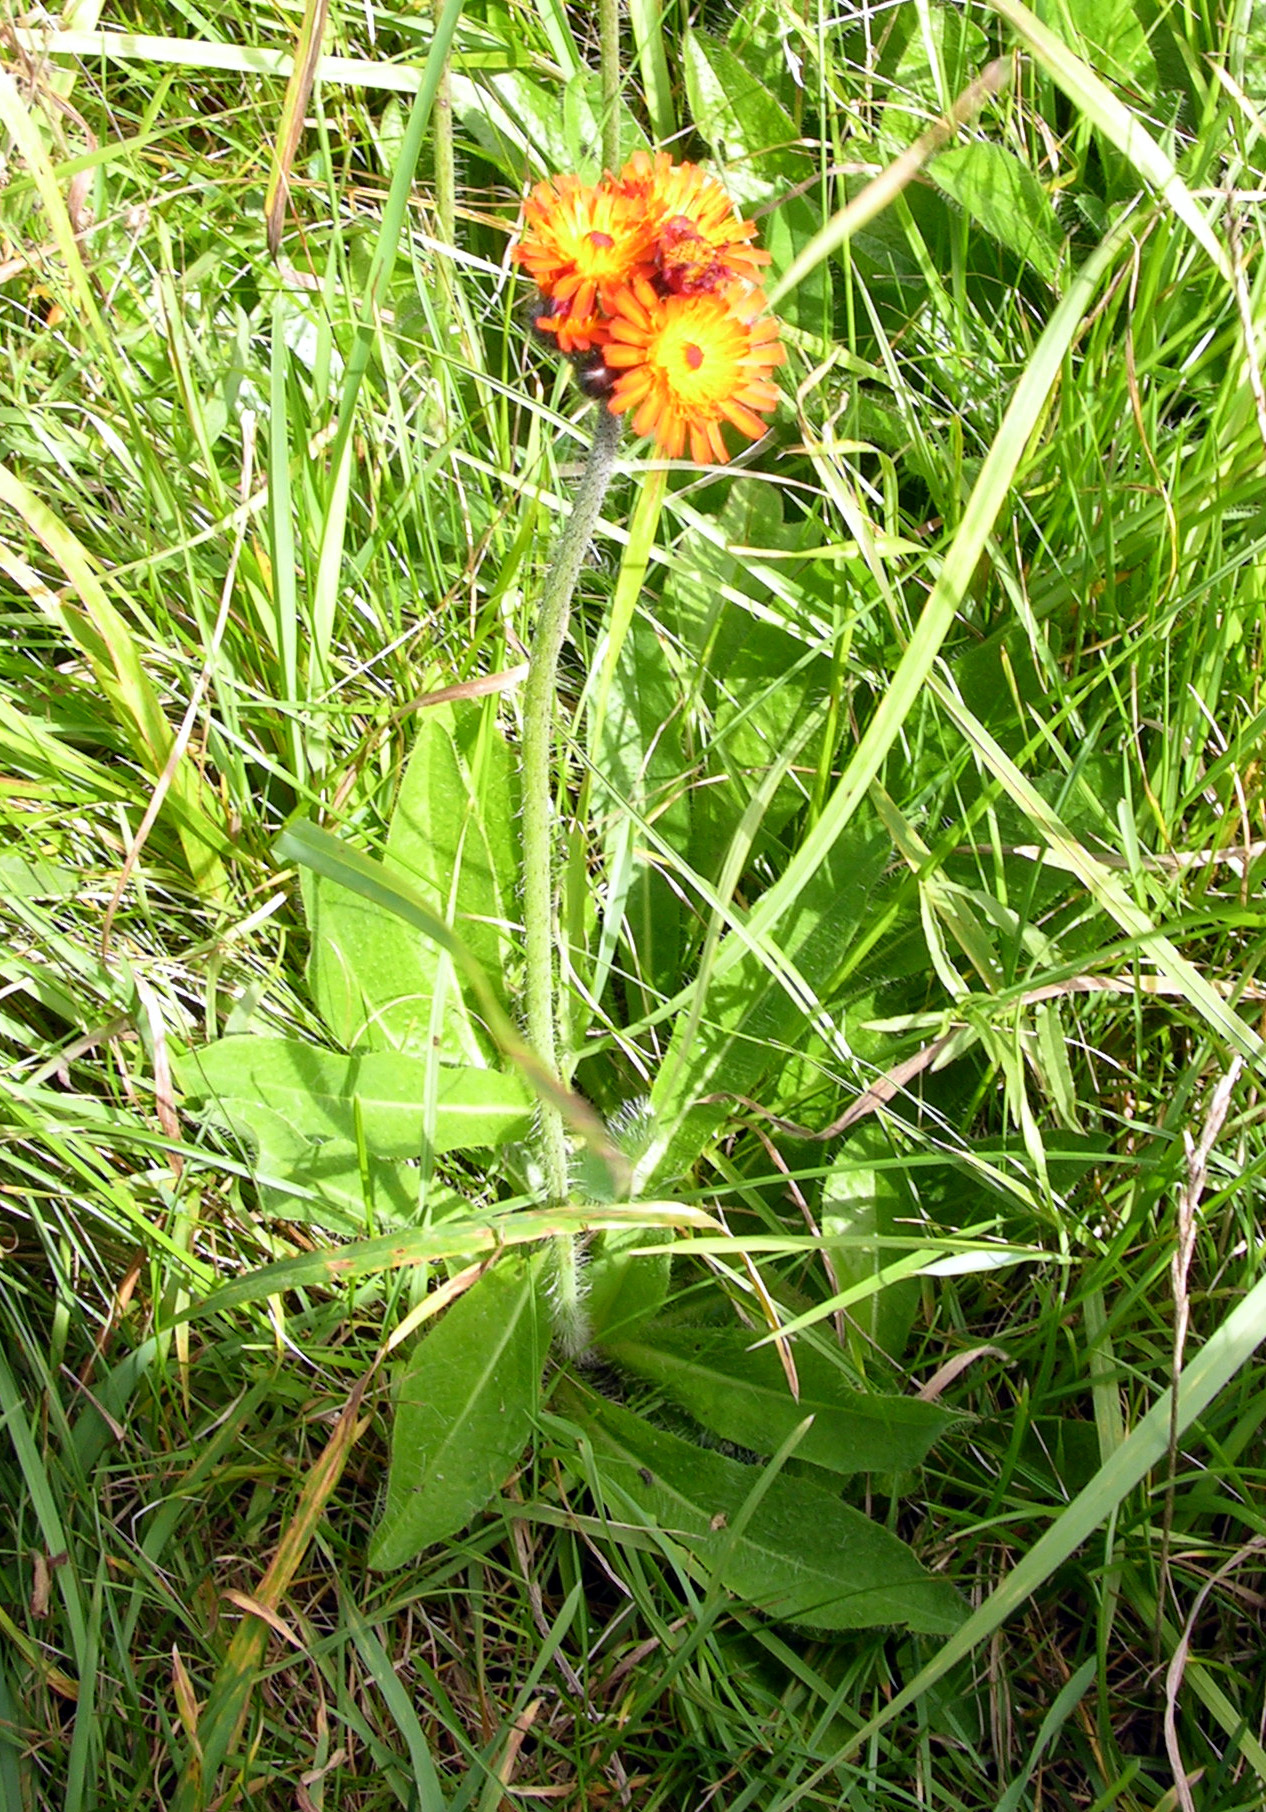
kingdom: Plantae
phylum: Tracheophyta
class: Magnoliopsida
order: Asterales
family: Asteraceae
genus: Pilosella
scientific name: Pilosella aurantiaca
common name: Fox-and-cubs
